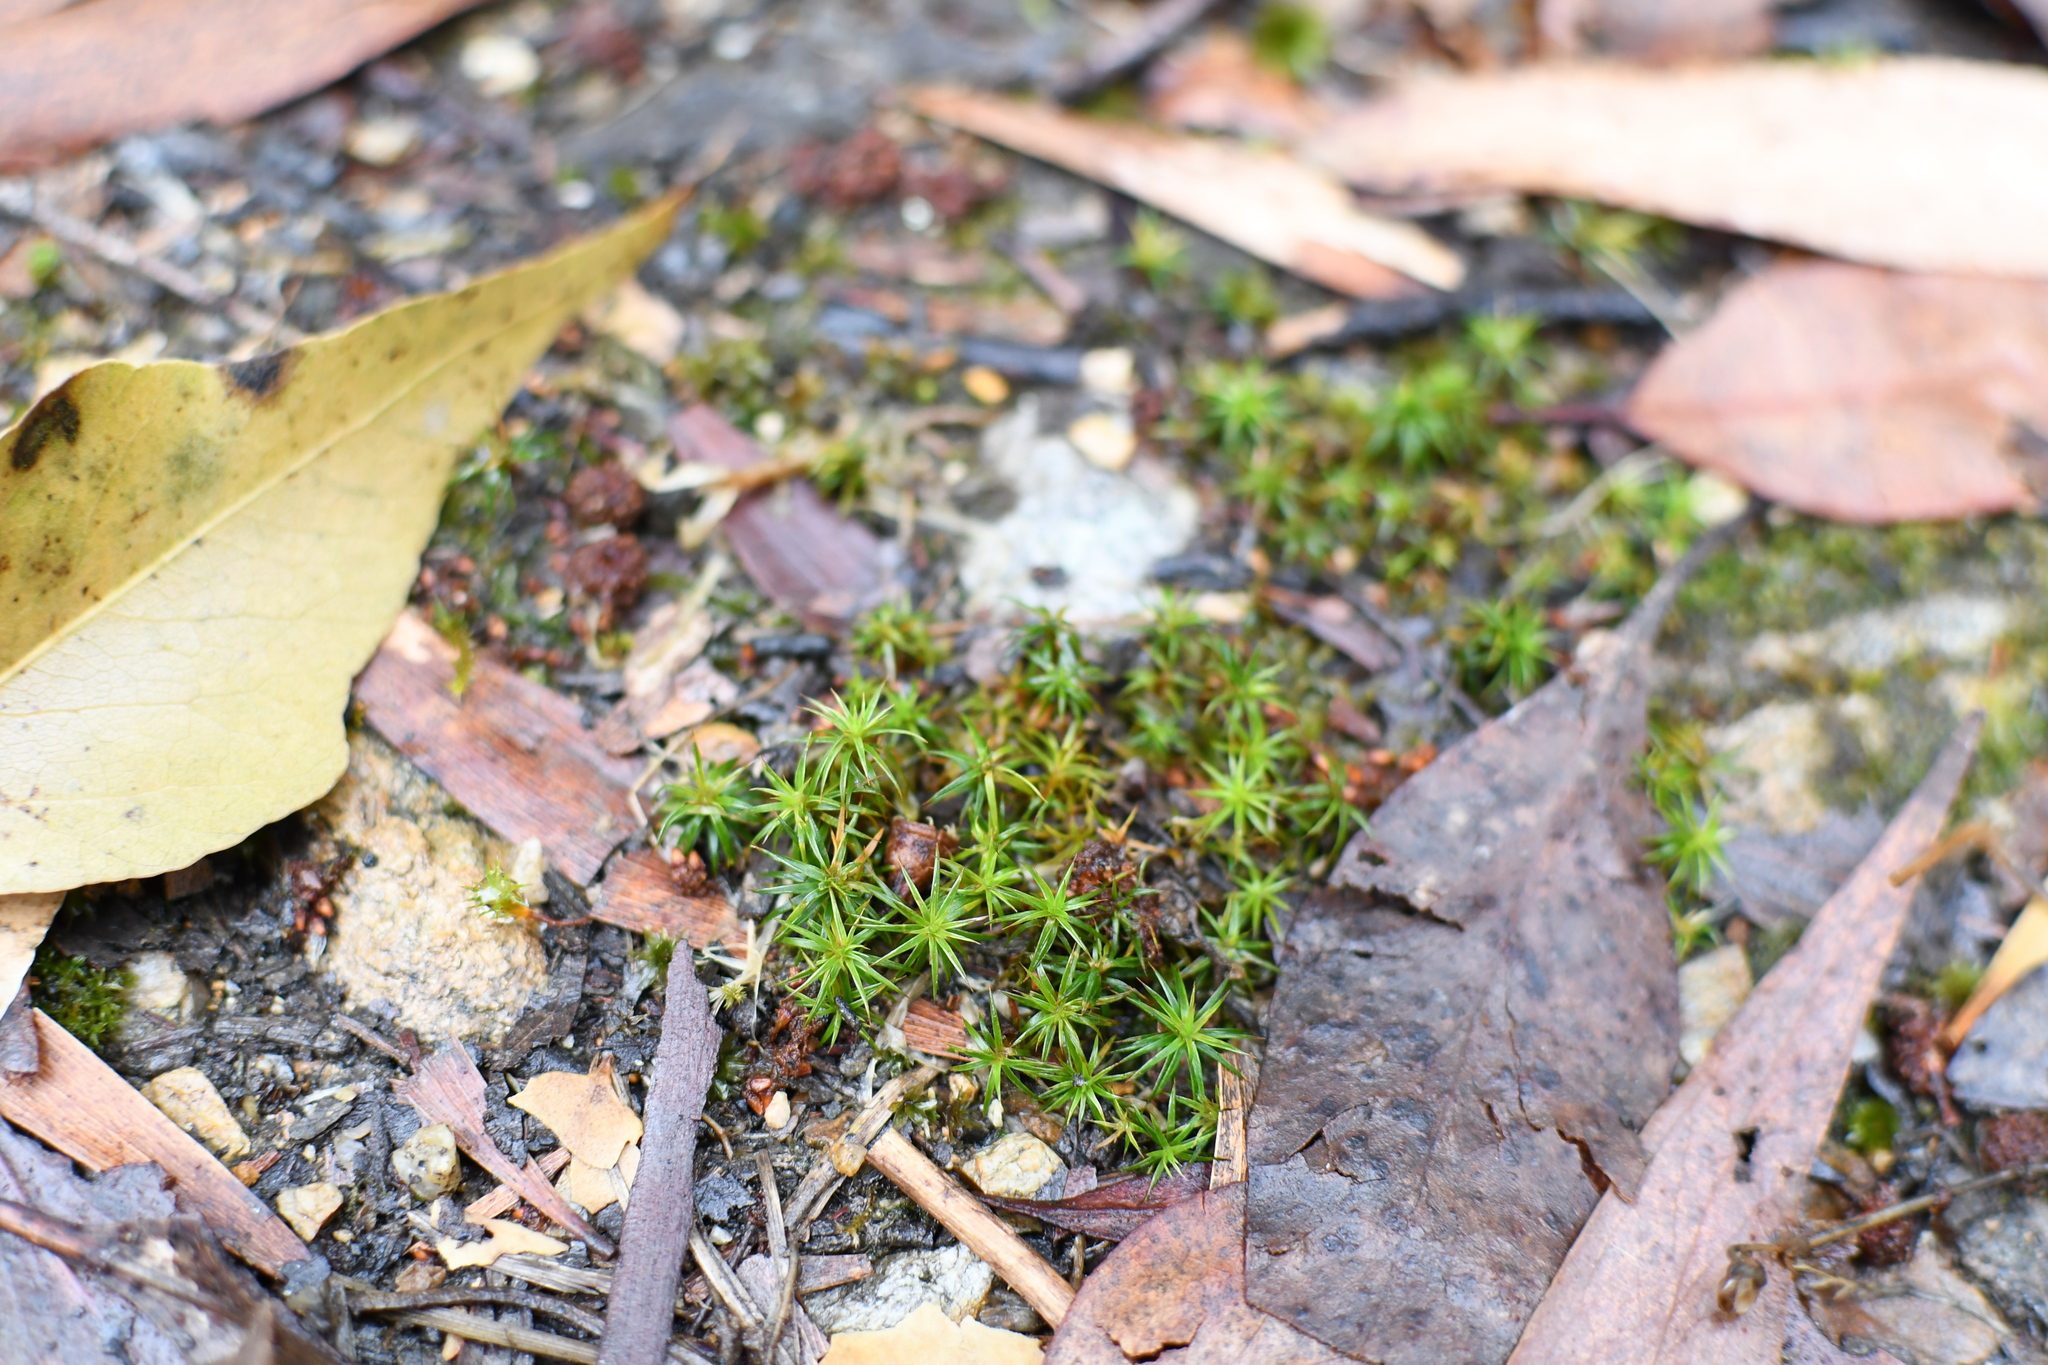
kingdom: Plantae
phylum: Bryophyta
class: Polytrichopsida
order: Polytrichales
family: Polytrichaceae
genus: Polytrichum
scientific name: Polytrichum juniperinum
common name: Juniper haircap moss
